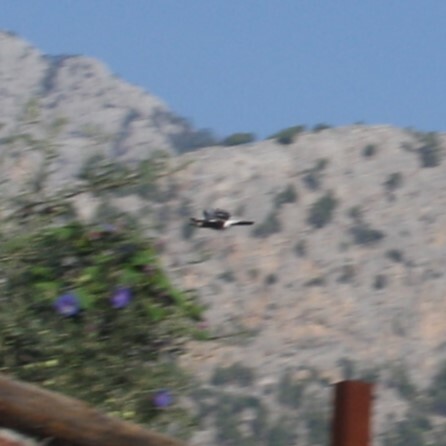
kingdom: Animalia
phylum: Chordata
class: Aves
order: Passeriformes
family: Corvidae
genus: Garrulus
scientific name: Garrulus glandarius
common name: Eurasian jay
